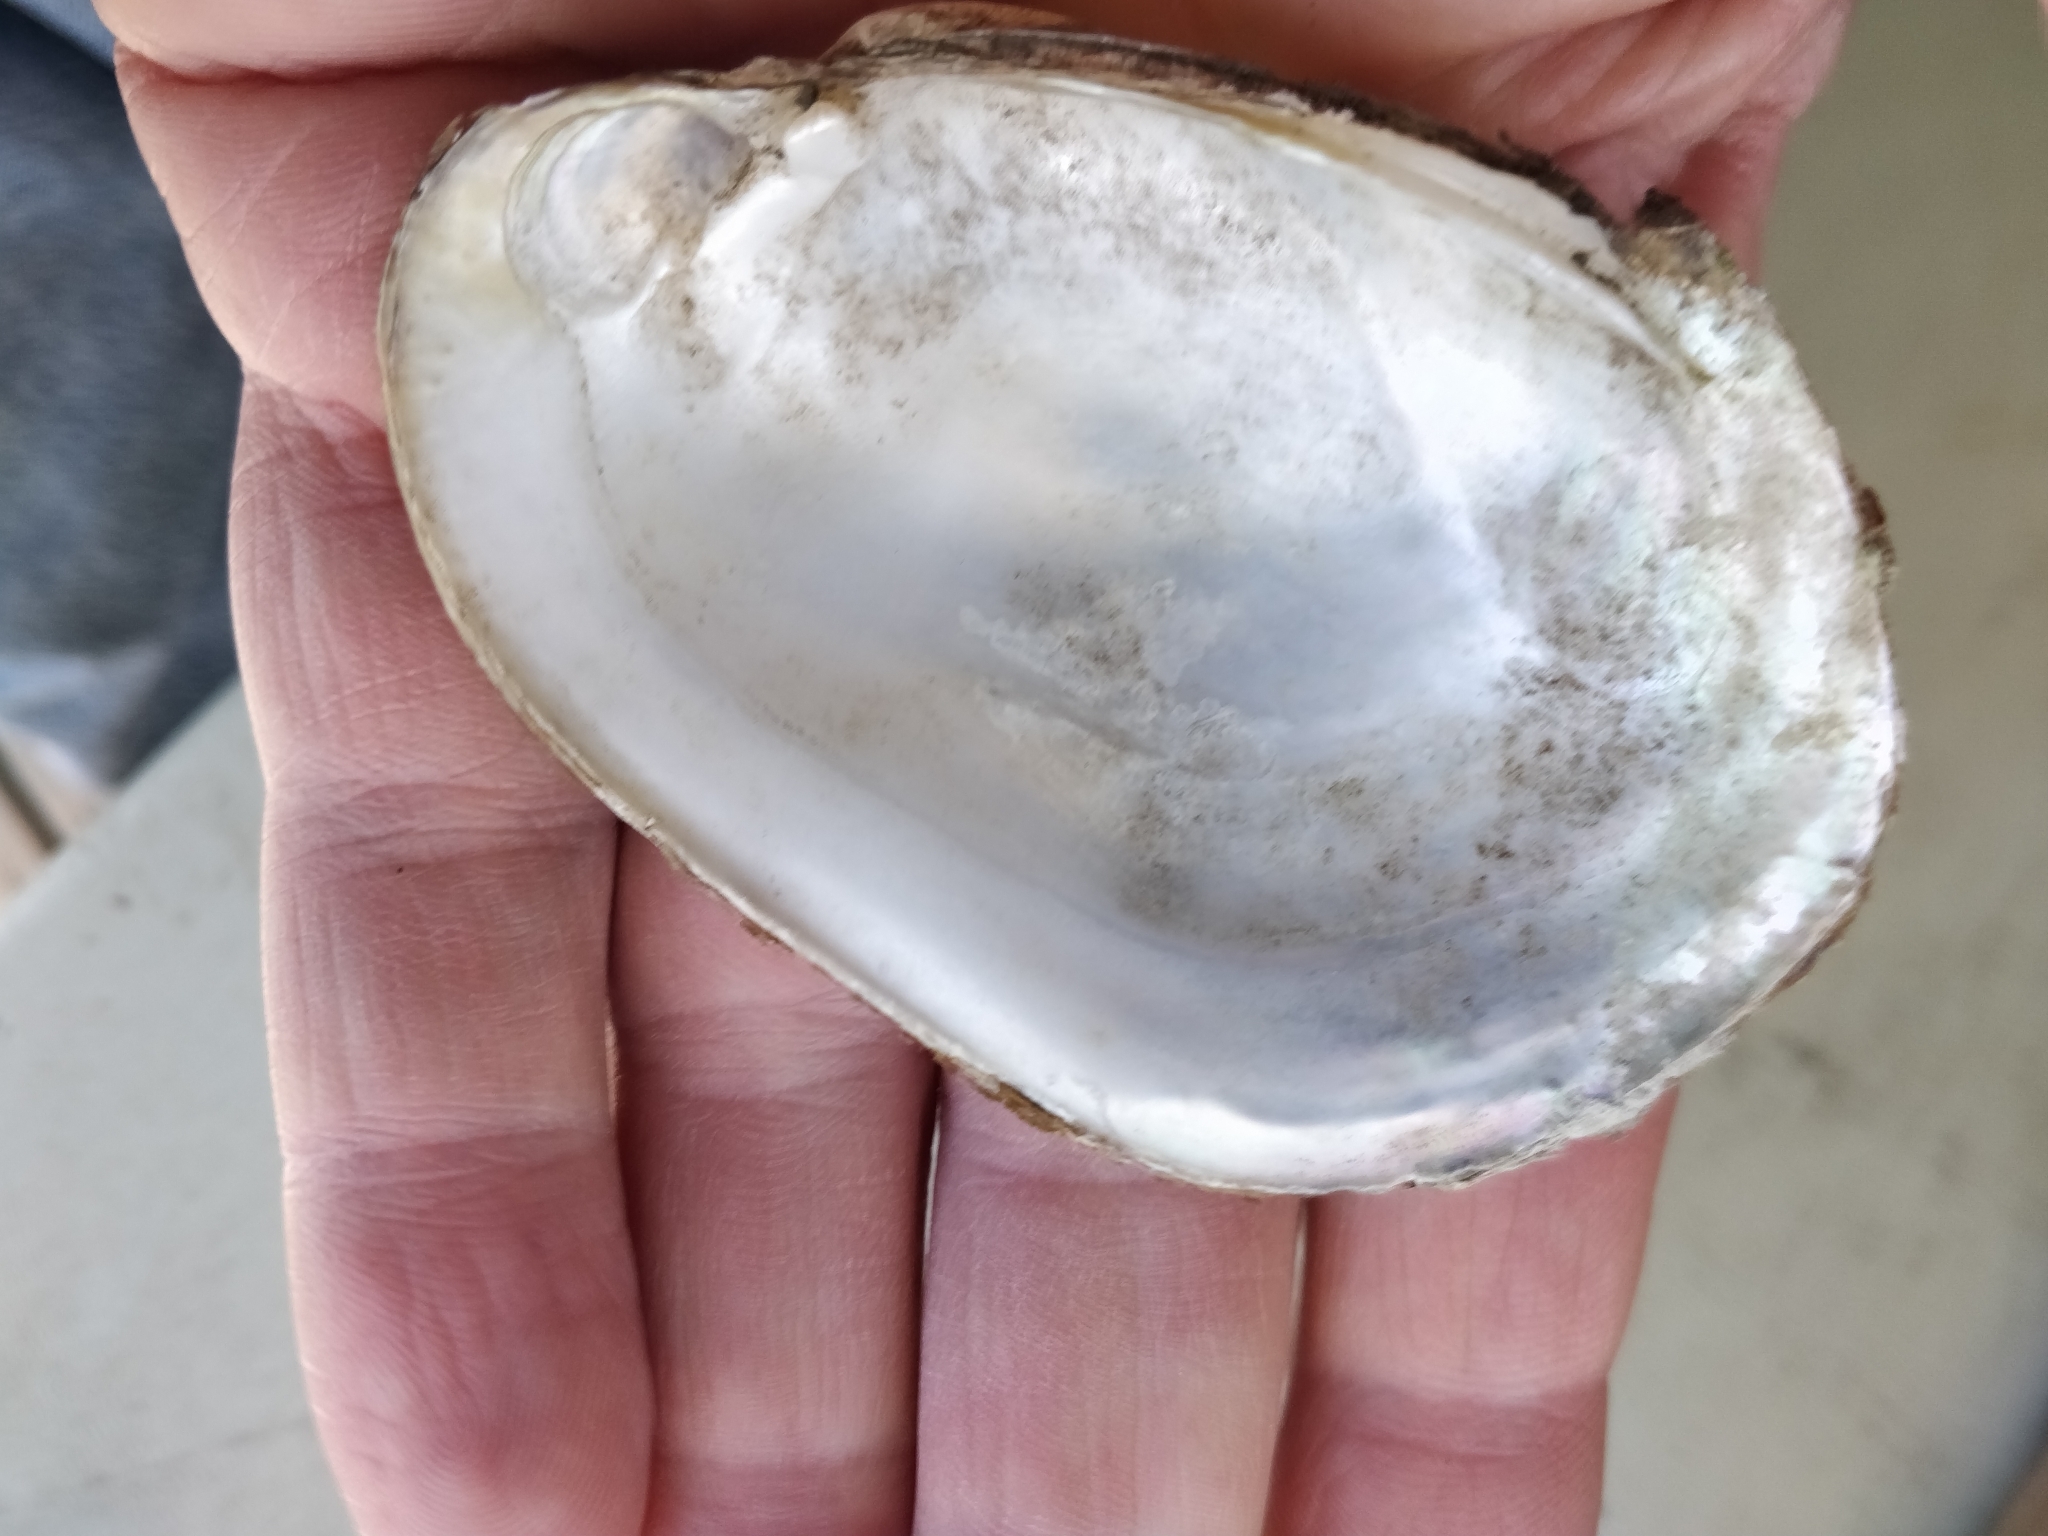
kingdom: Animalia
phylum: Mollusca
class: Bivalvia
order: Unionida
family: Unionidae
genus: Lampsilis
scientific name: Lampsilis siliquoidea
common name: Fatmucket
